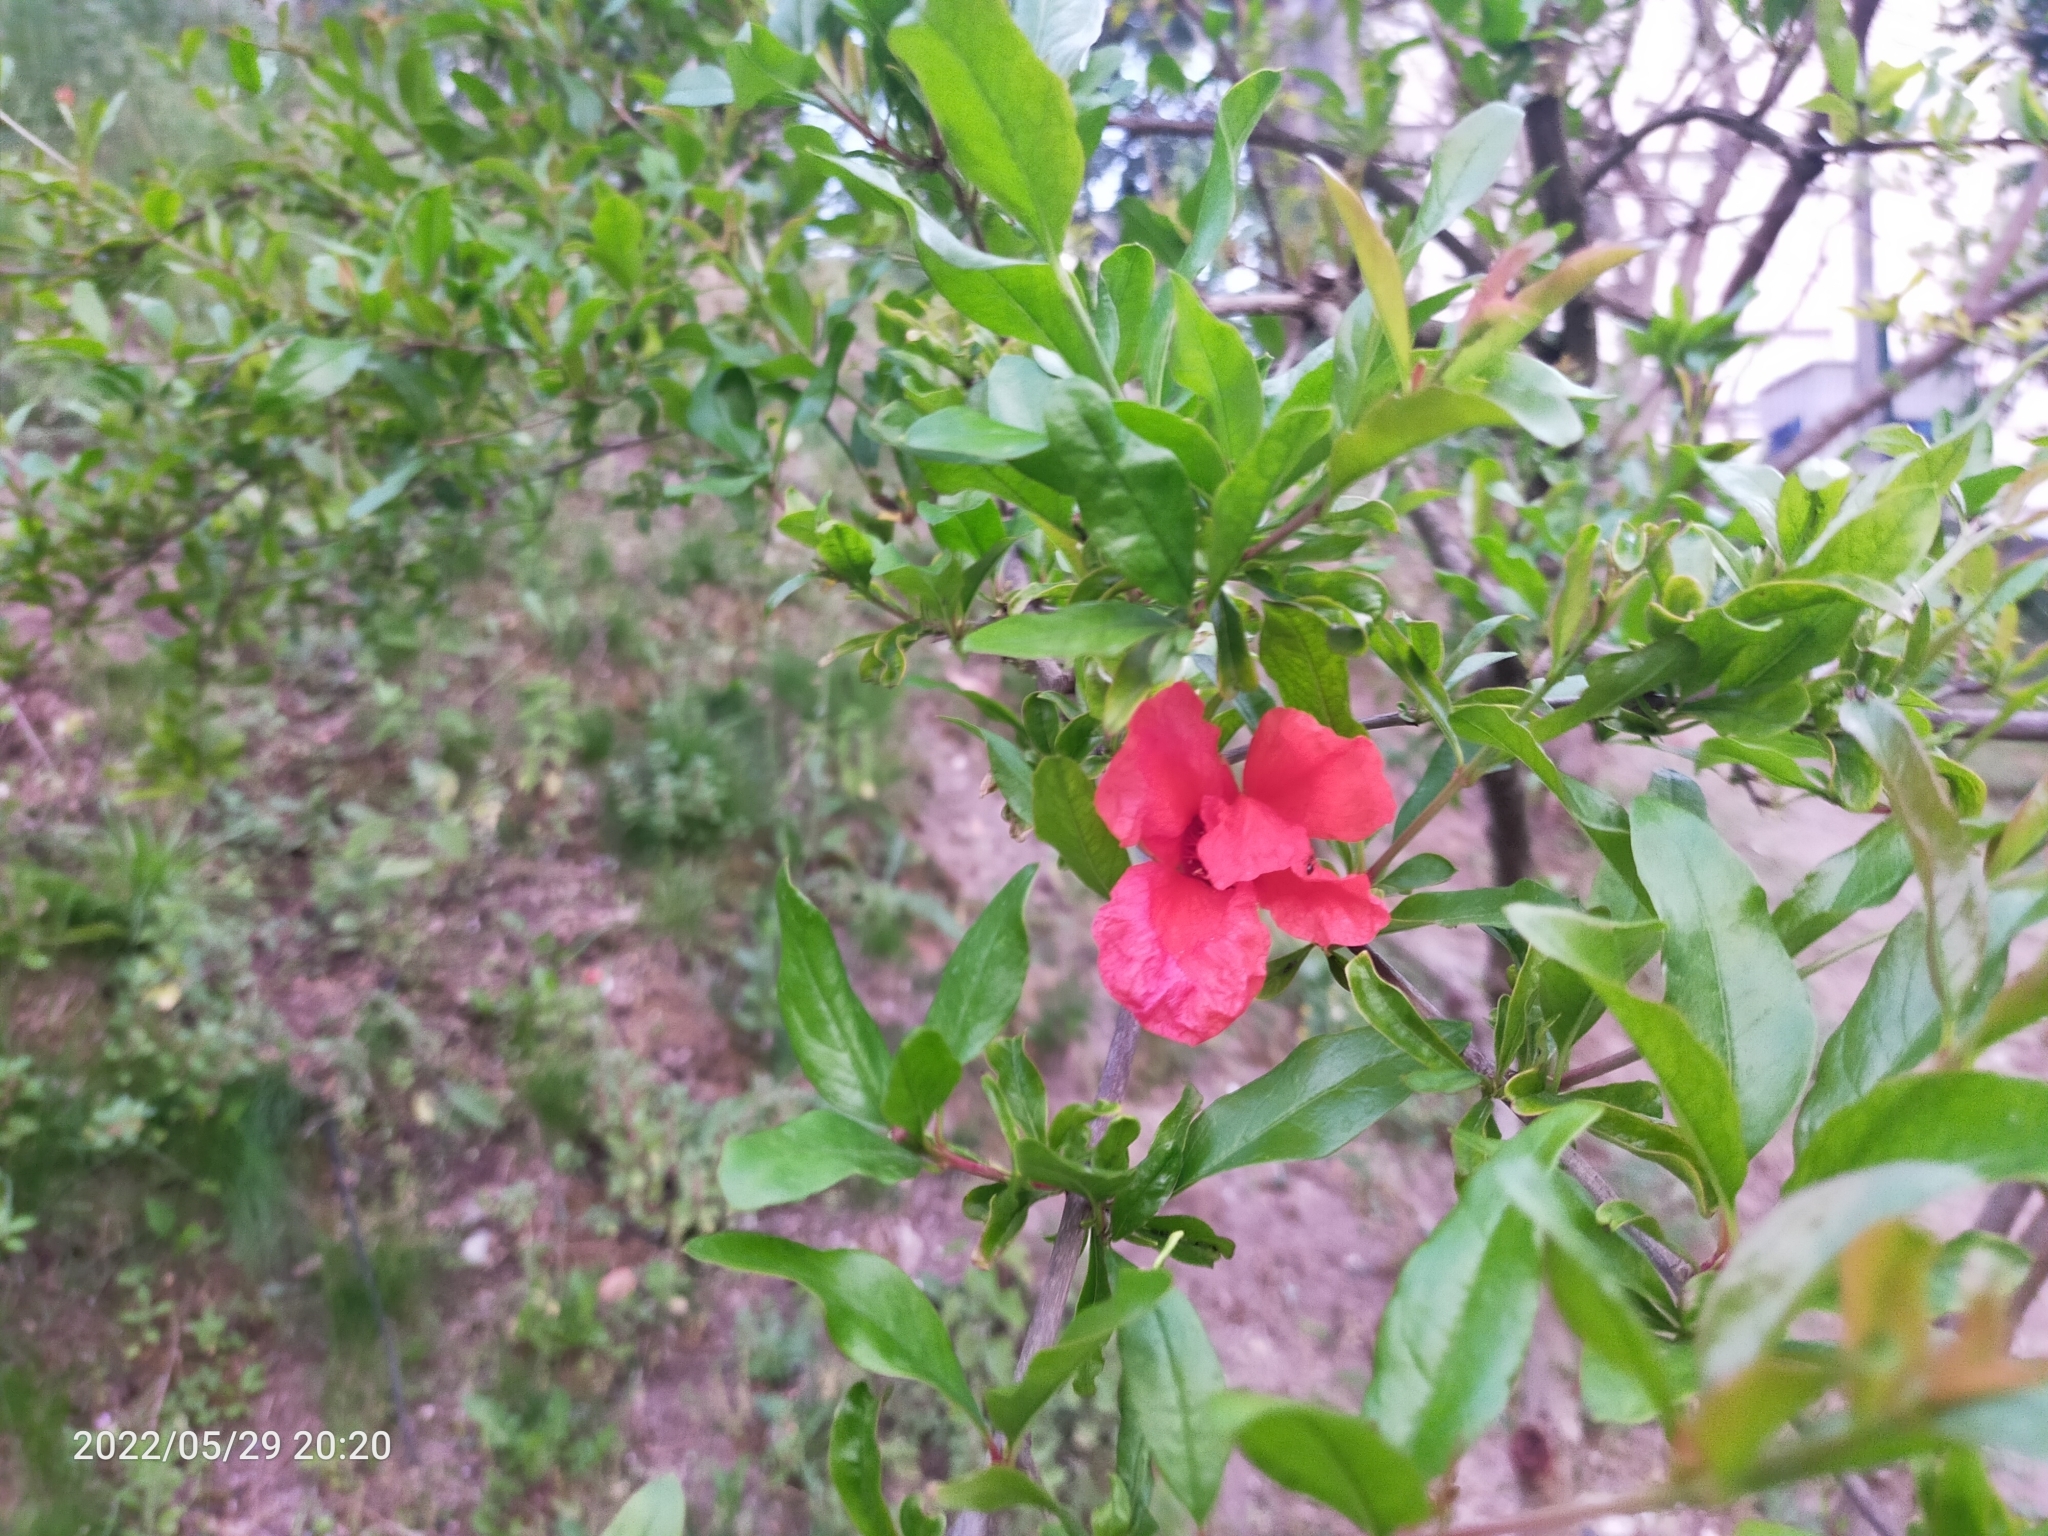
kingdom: Plantae
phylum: Tracheophyta
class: Magnoliopsida
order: Myrtales
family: Lythraceae
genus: Punica
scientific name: Punica granatum
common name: Pomegranate
